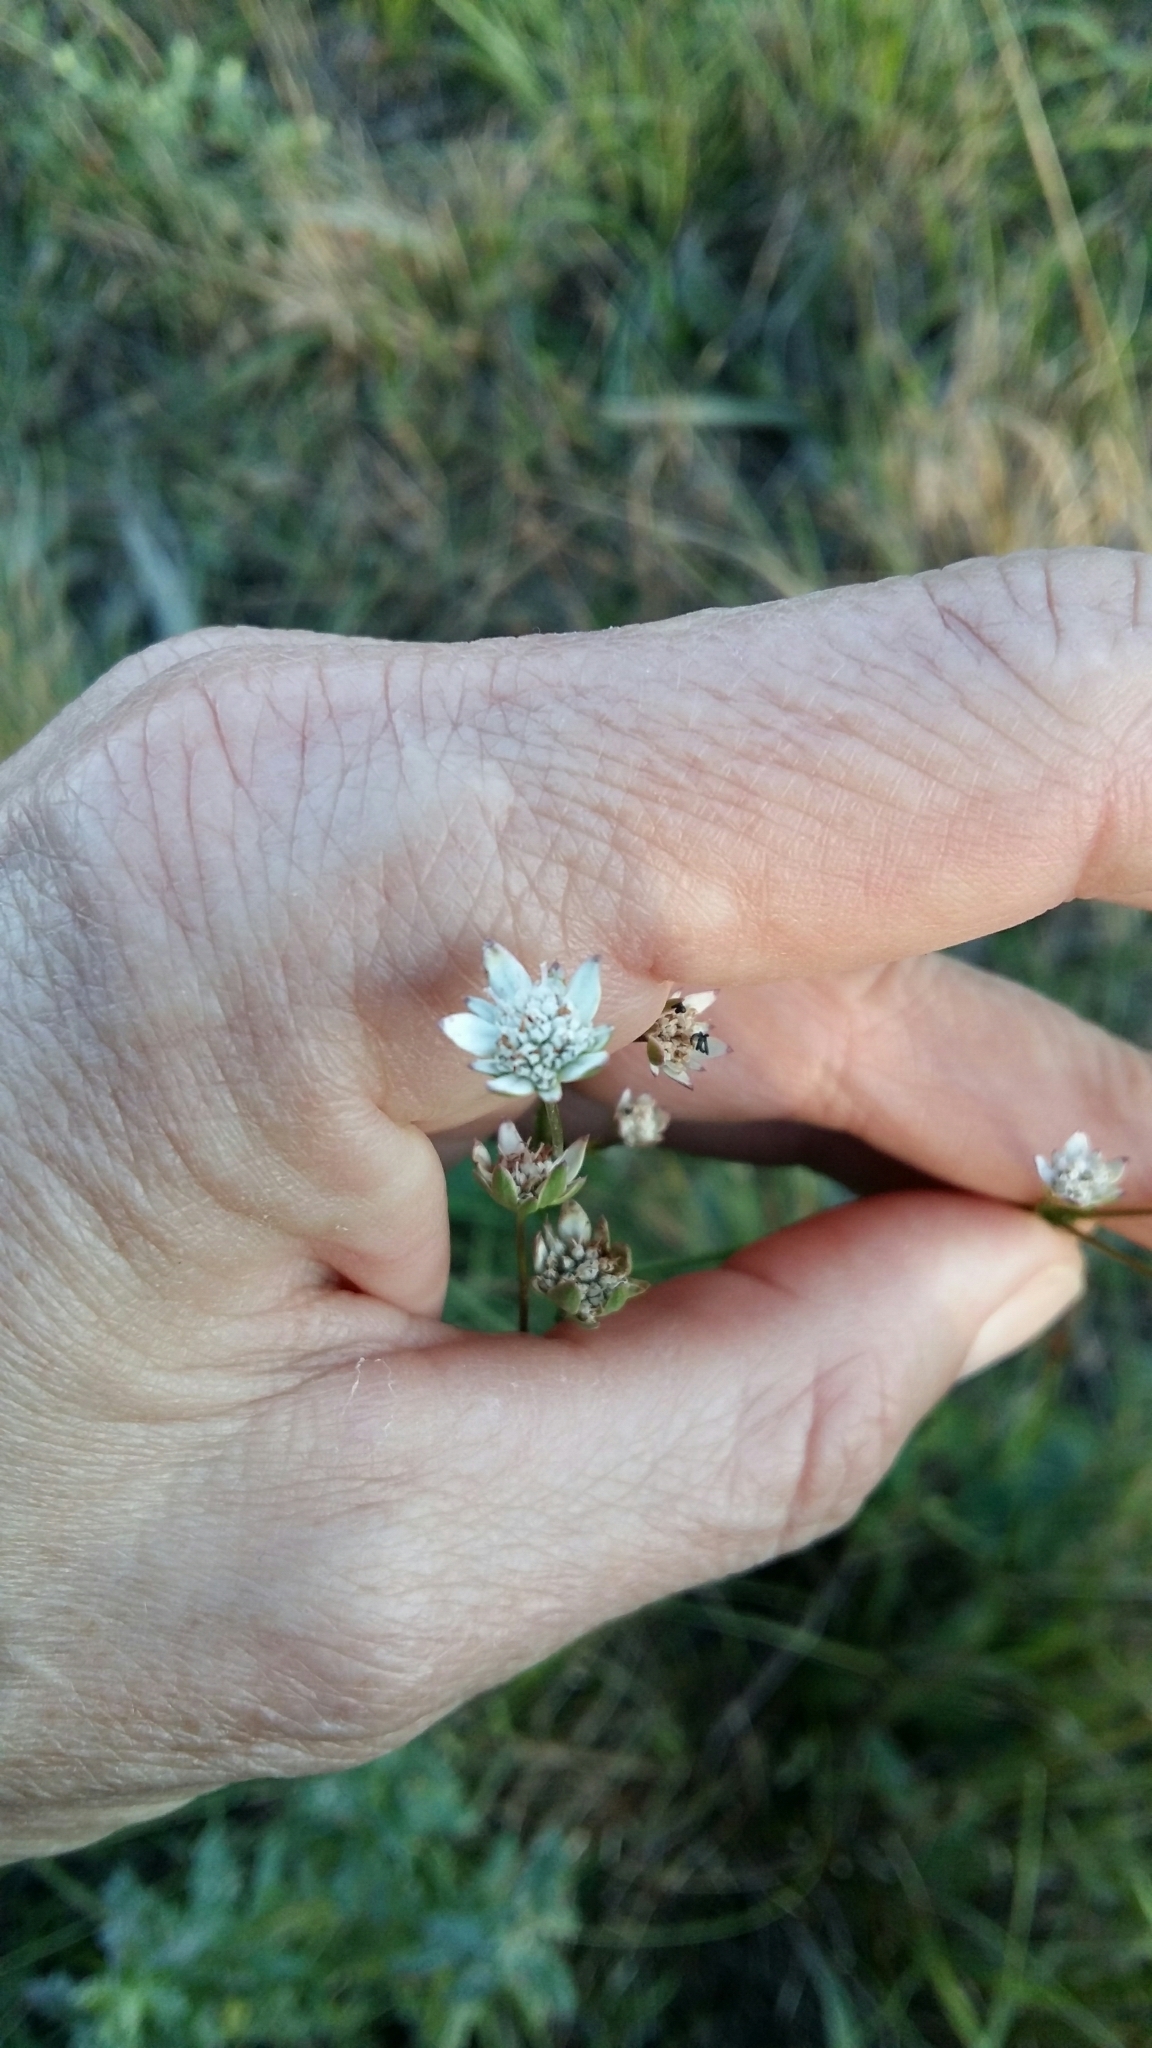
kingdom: Plantae
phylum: Tracheophyta
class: Magnoliopsida
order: Apiales
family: Apiaceae
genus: Alepidea
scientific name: Alepidea capensis
